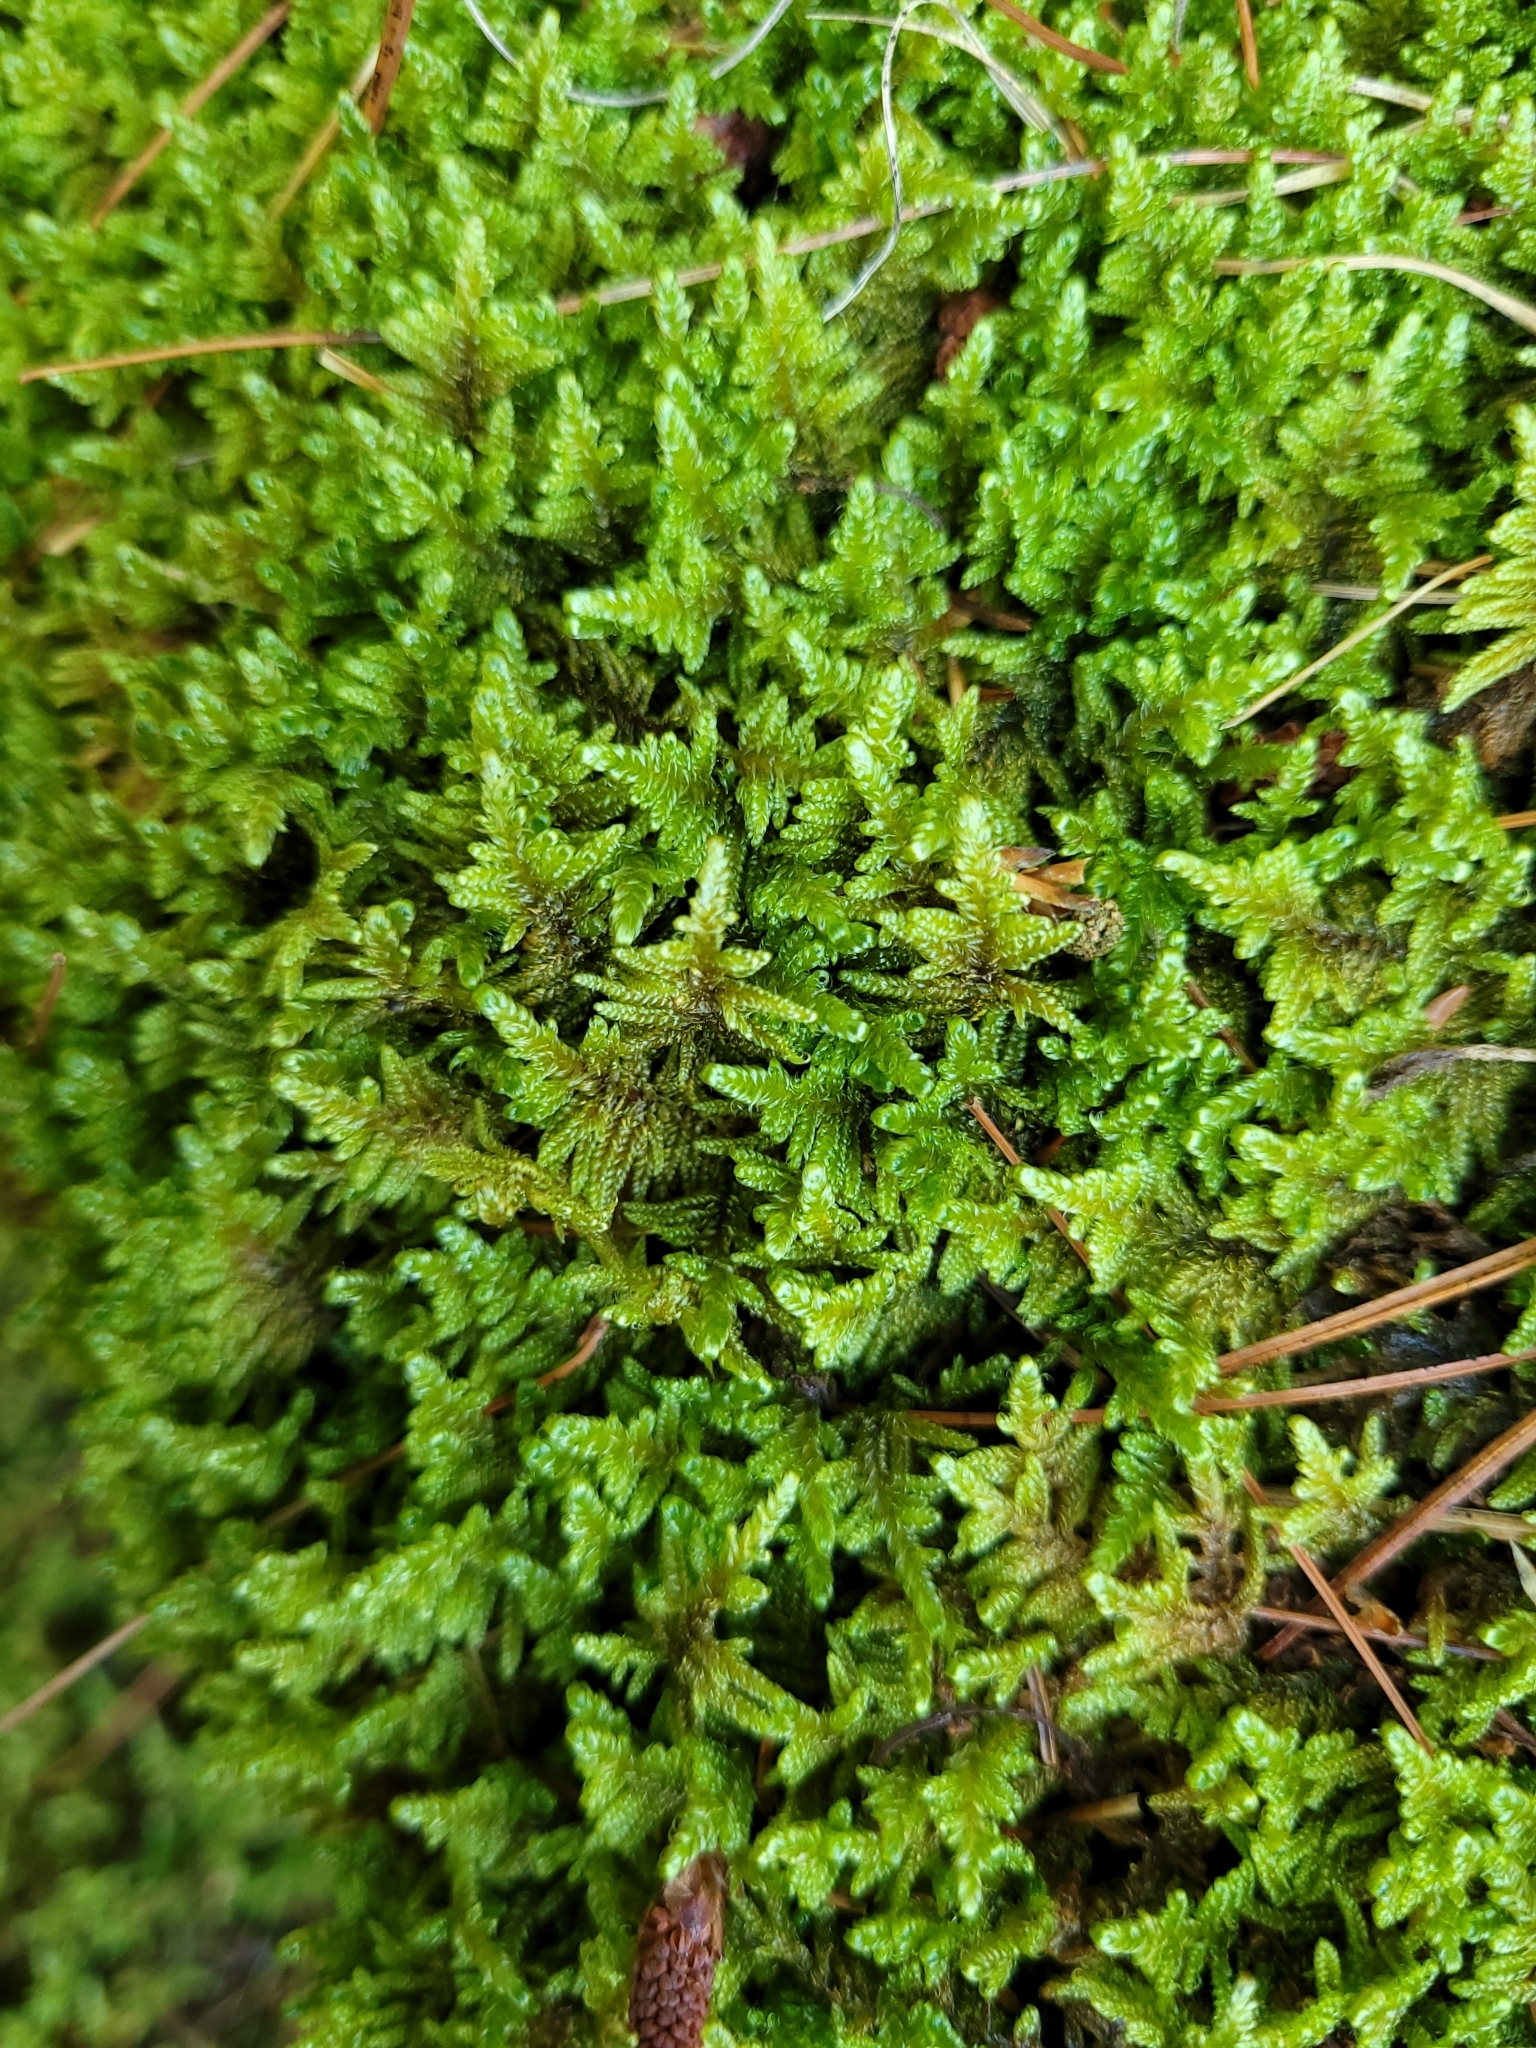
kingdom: Plantae
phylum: Bryophyta
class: Bryopsida
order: Hypnales
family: Callicladiaceae
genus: Callicladium
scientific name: Callicladium imponens
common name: Brocade moss
